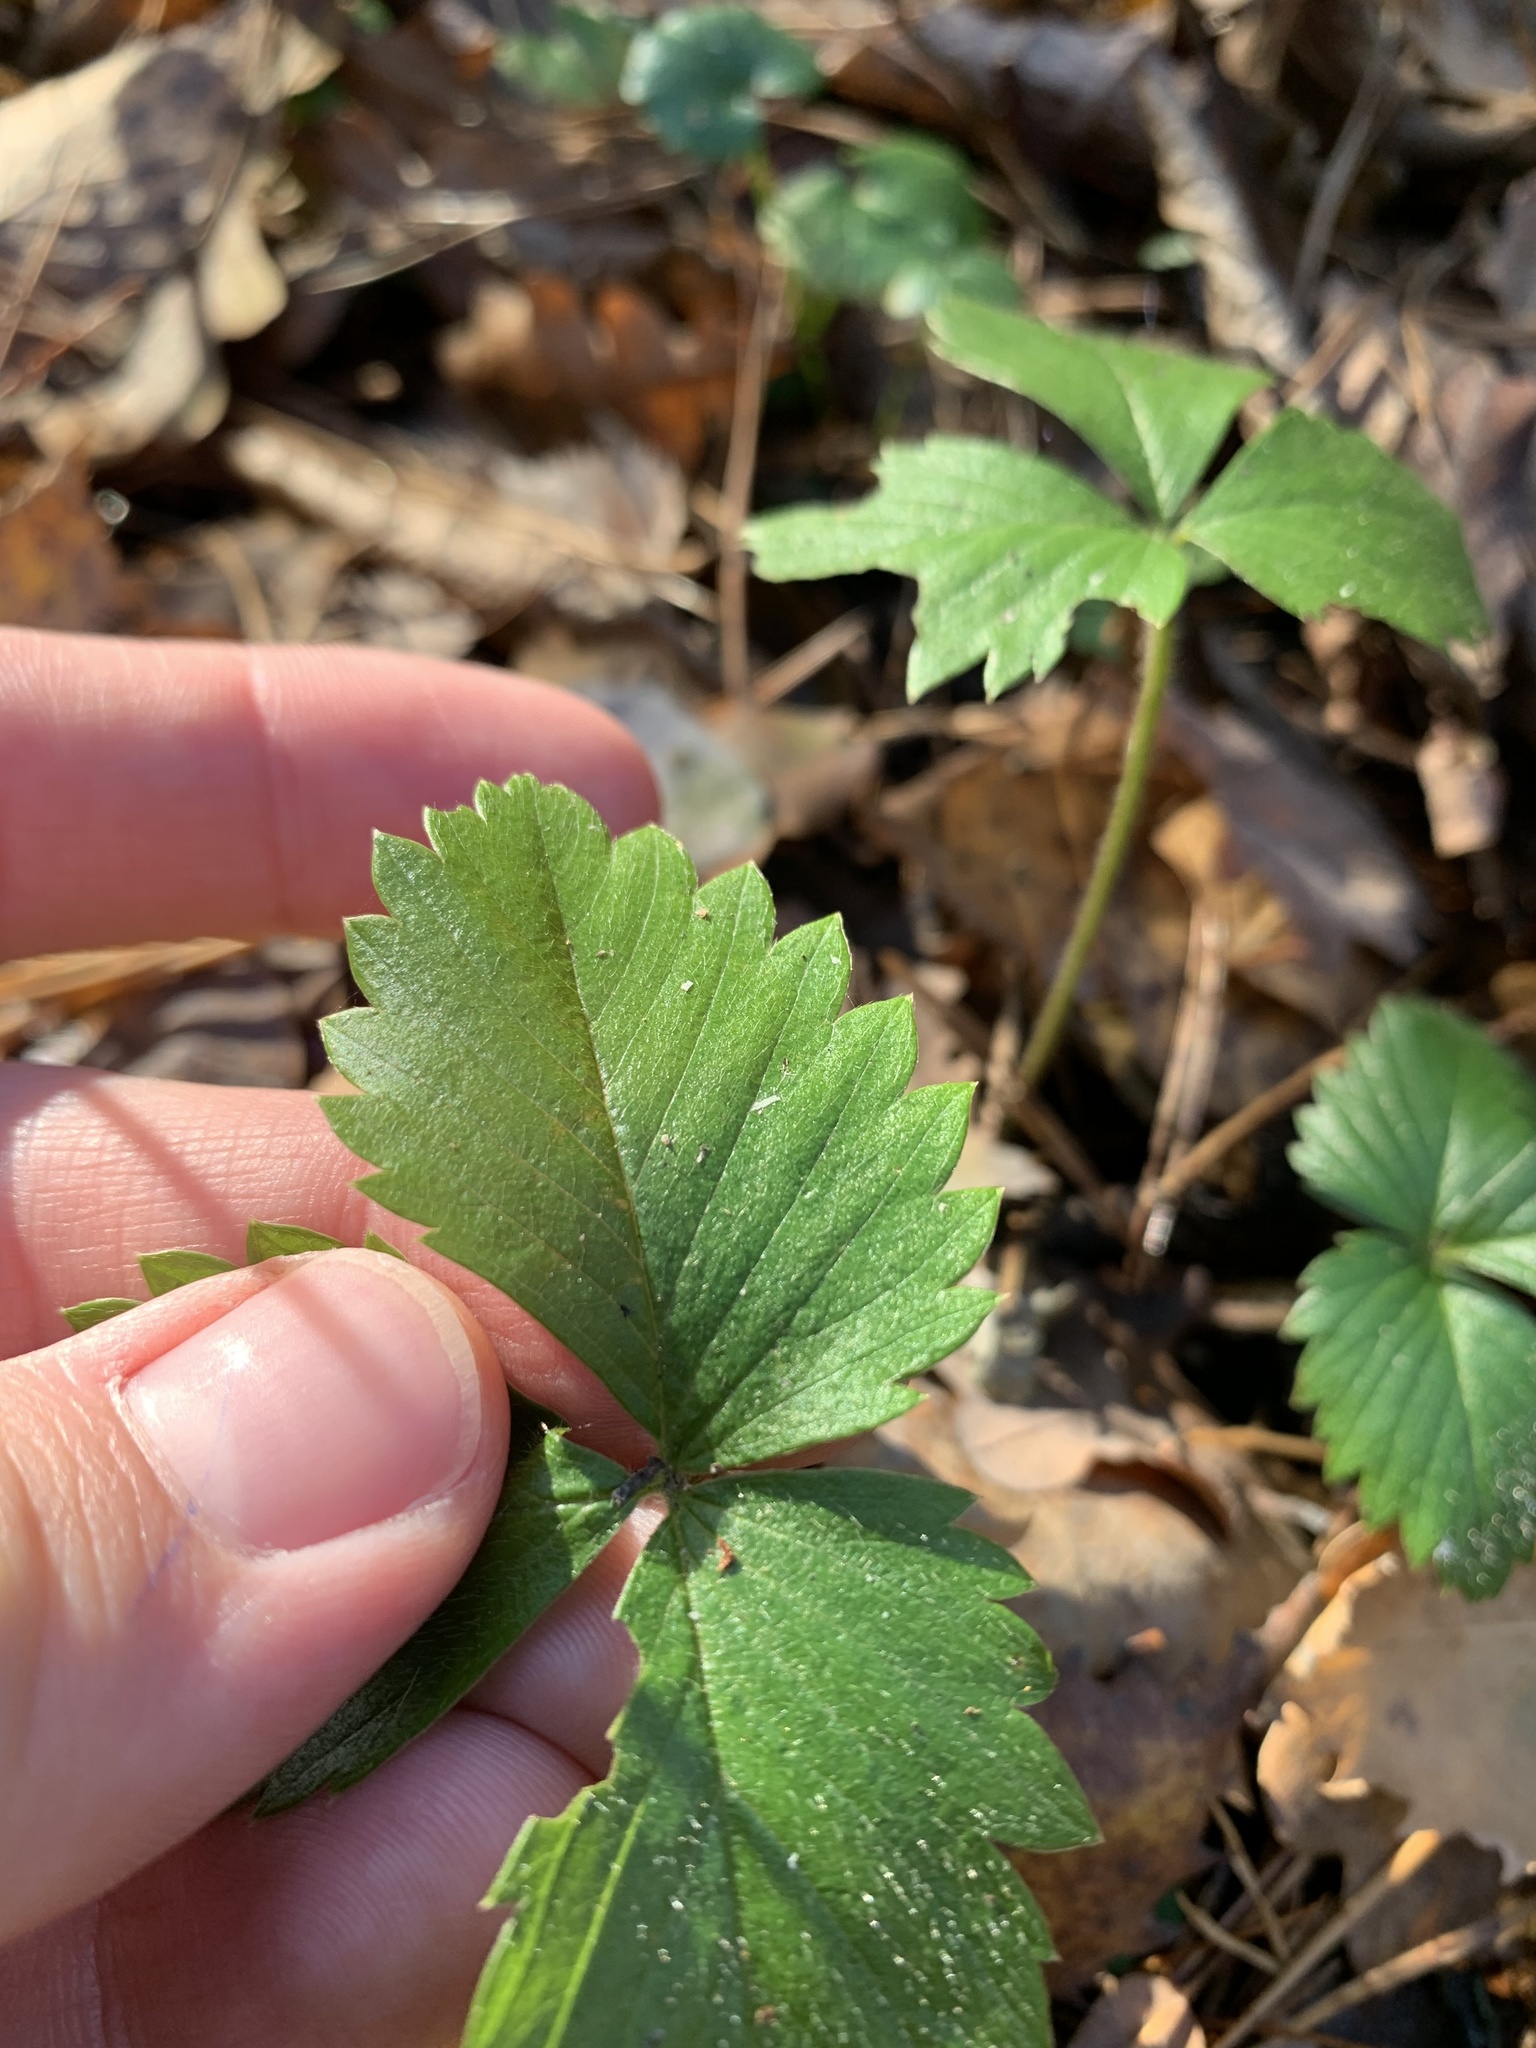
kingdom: Plantae
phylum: Tracheophyta
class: Magnoliopsida
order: Rosales
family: Rosaceae
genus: Fragaria
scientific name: Fragaria vesca
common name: Wild strawberry
